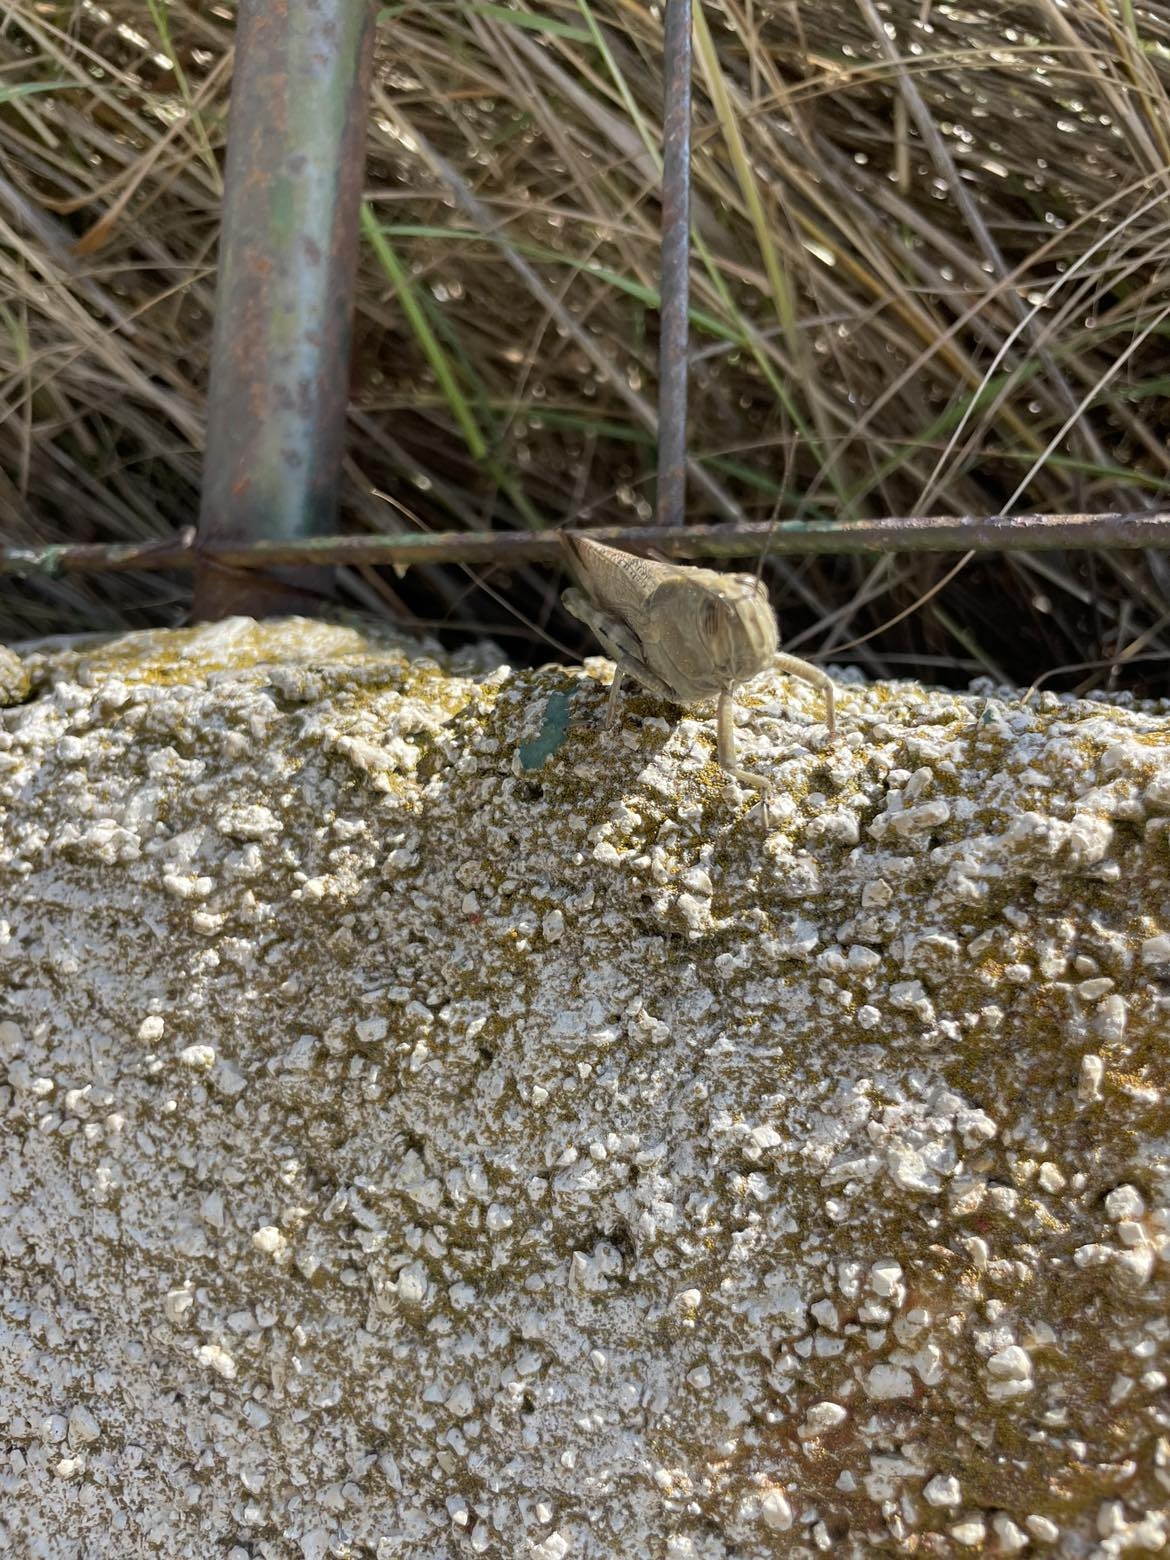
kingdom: Animalia
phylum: Arthropoda
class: Insecta
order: Orthoptera
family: Acrididae
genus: Anacridium
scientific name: Anacridium aegyptium
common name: Egyptian grasshopper
